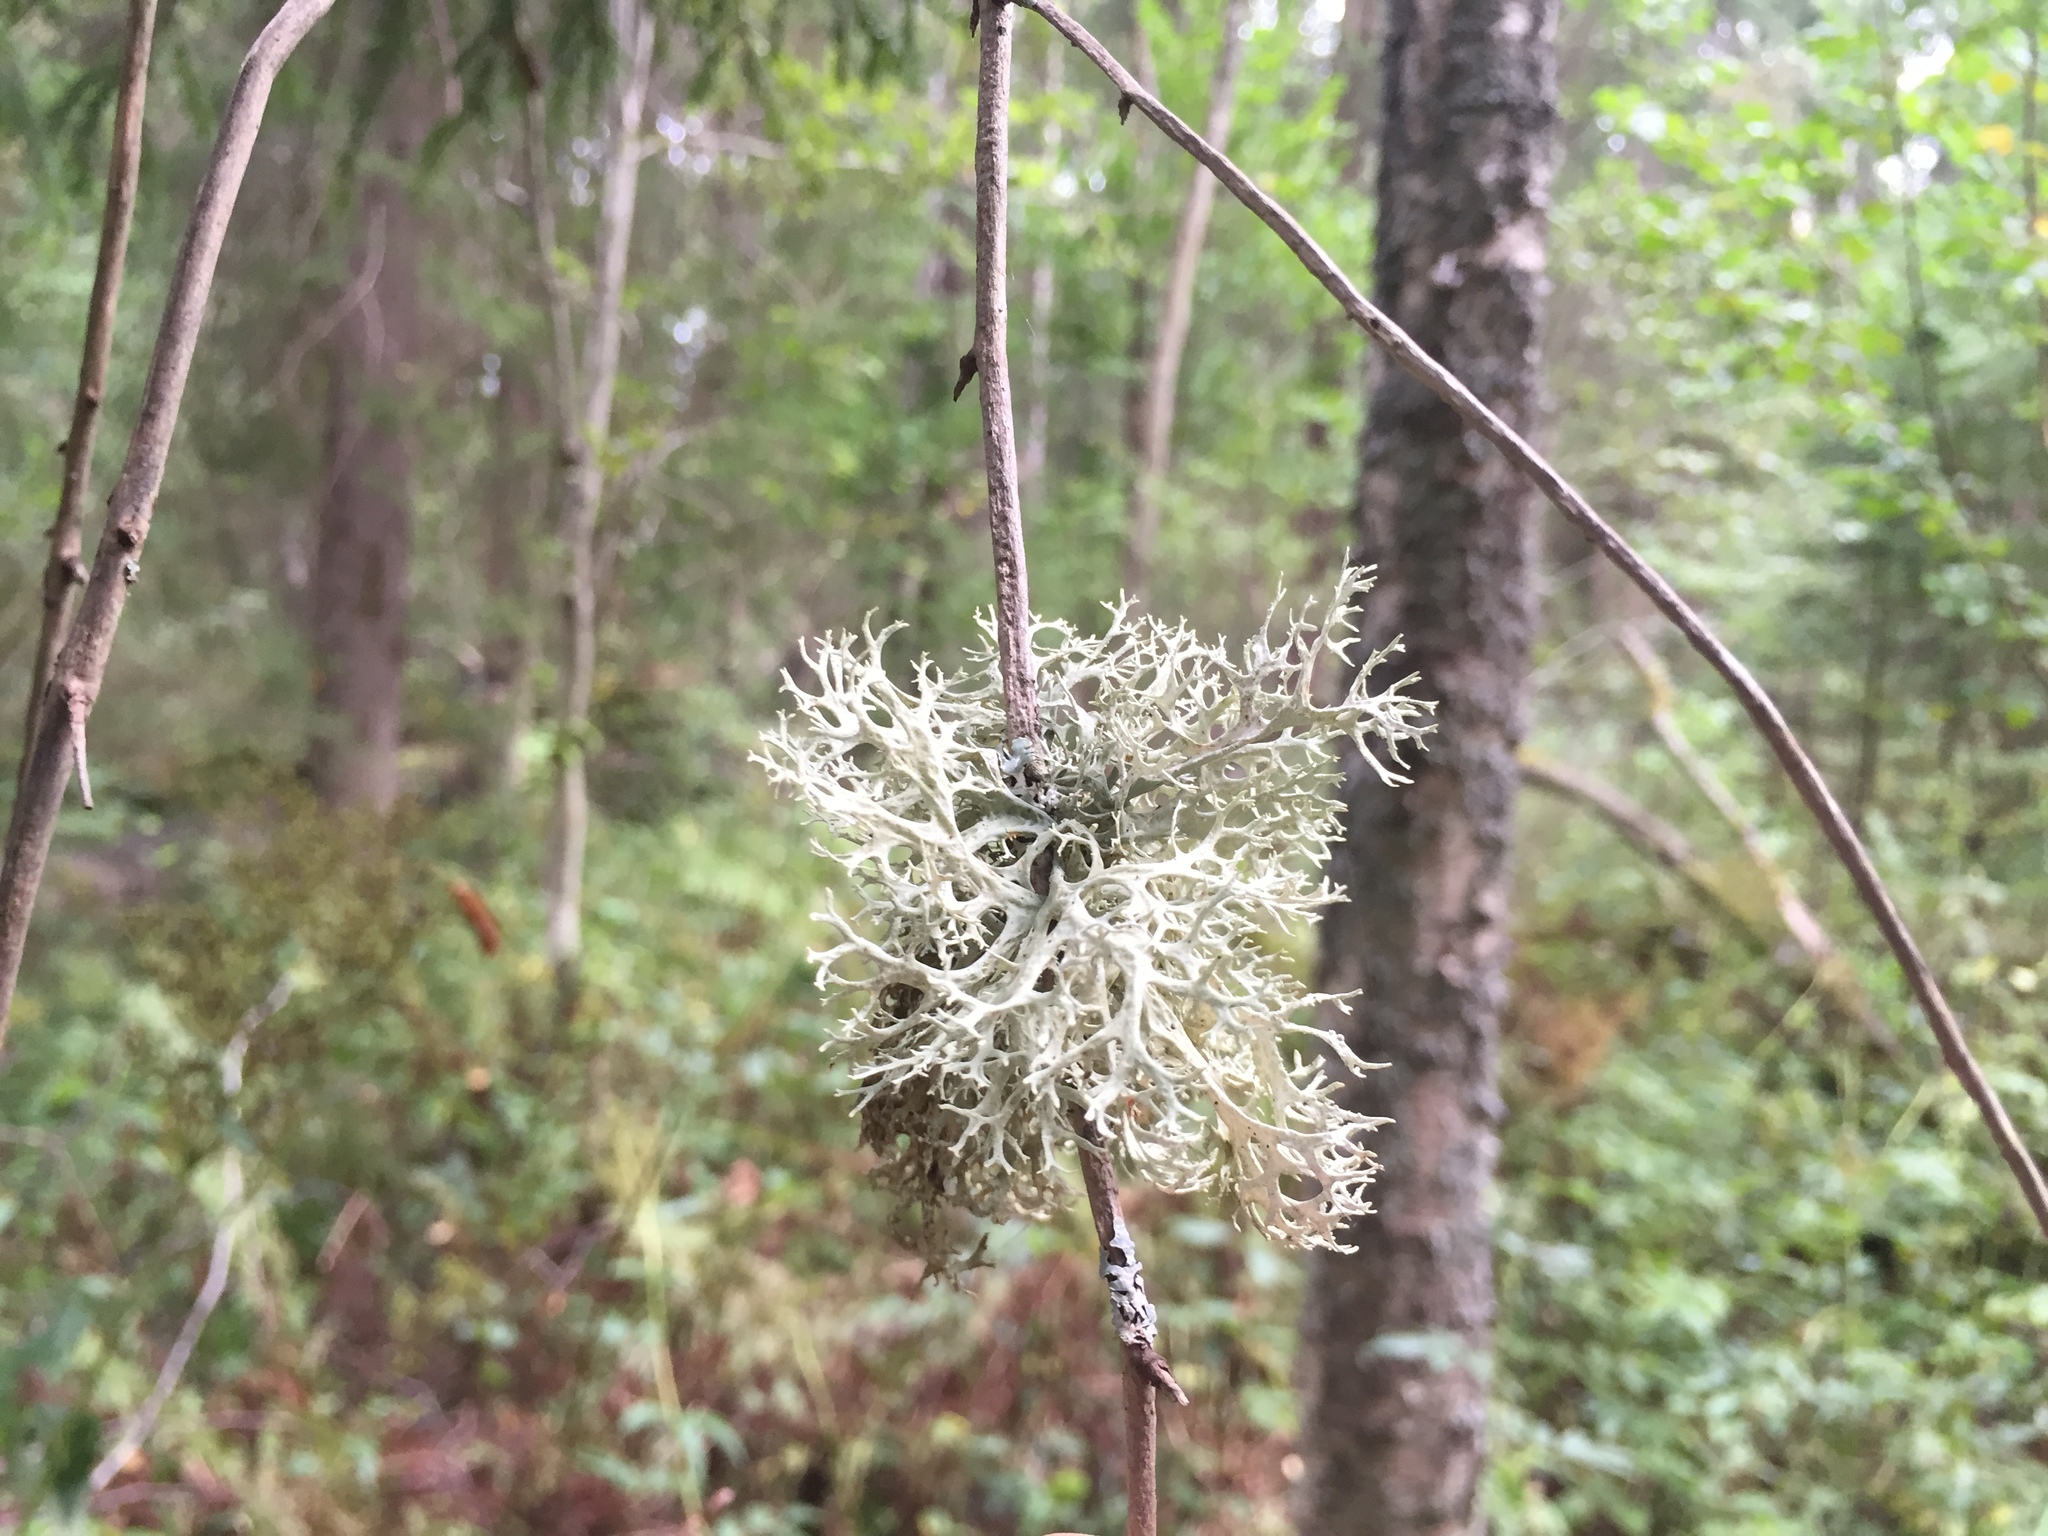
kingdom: Fungi
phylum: Ascomycota
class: Lecanoromycetes
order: Lecanorales
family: Parmeliaceae
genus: Evernia
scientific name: Evernia prunastri
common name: Oak moss
